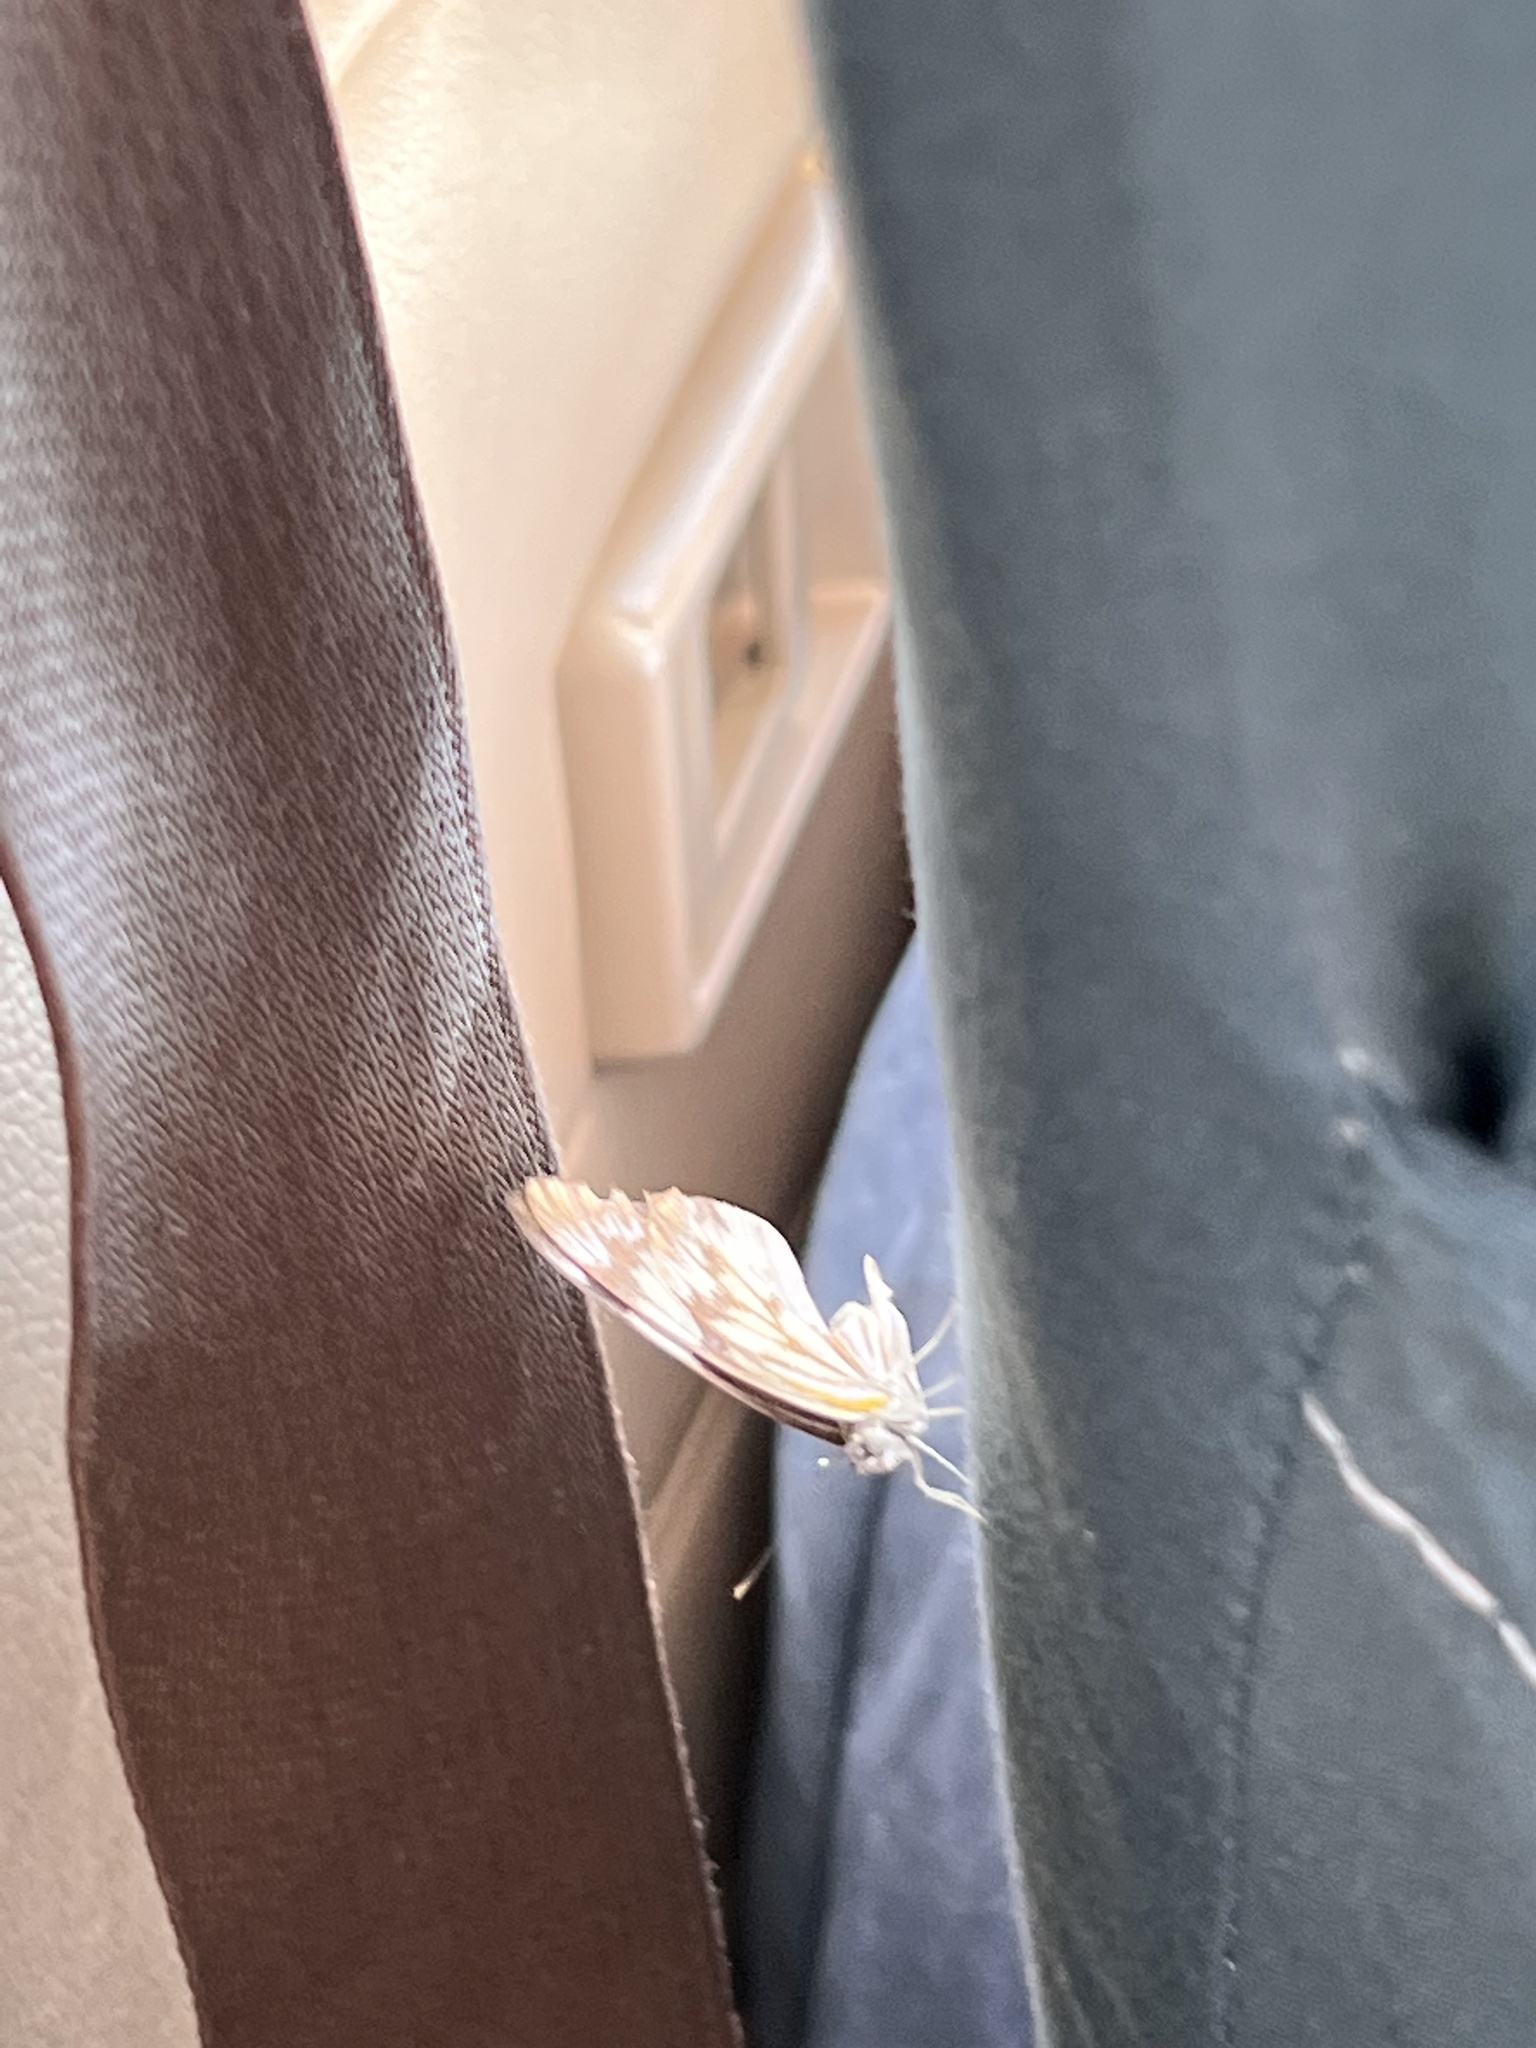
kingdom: Animalia
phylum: Arthropoda
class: Insecta
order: Lepidoptera
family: Pieridae
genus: Belenois
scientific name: Belenois gidica
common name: Pointed caper white
